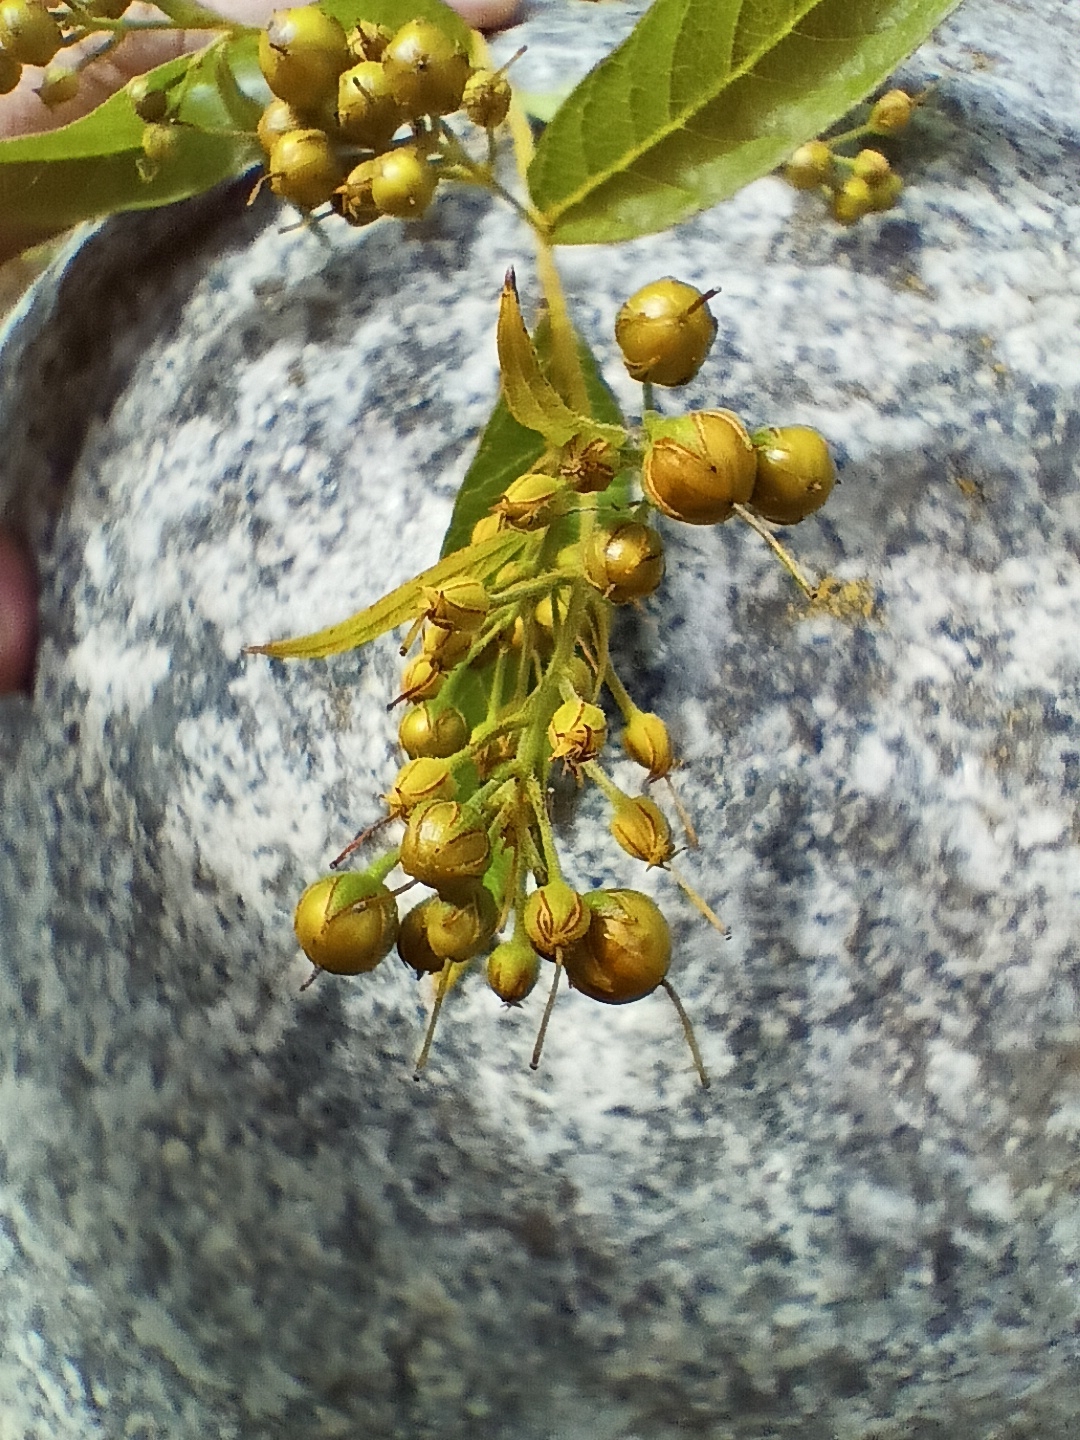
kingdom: Plantae
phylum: Tracheophyta
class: Magnoliopsida
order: Ericales
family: Primulaceae
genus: Lysimachia
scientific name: Lysimachia vulgaris
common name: Yellow loosestrife
